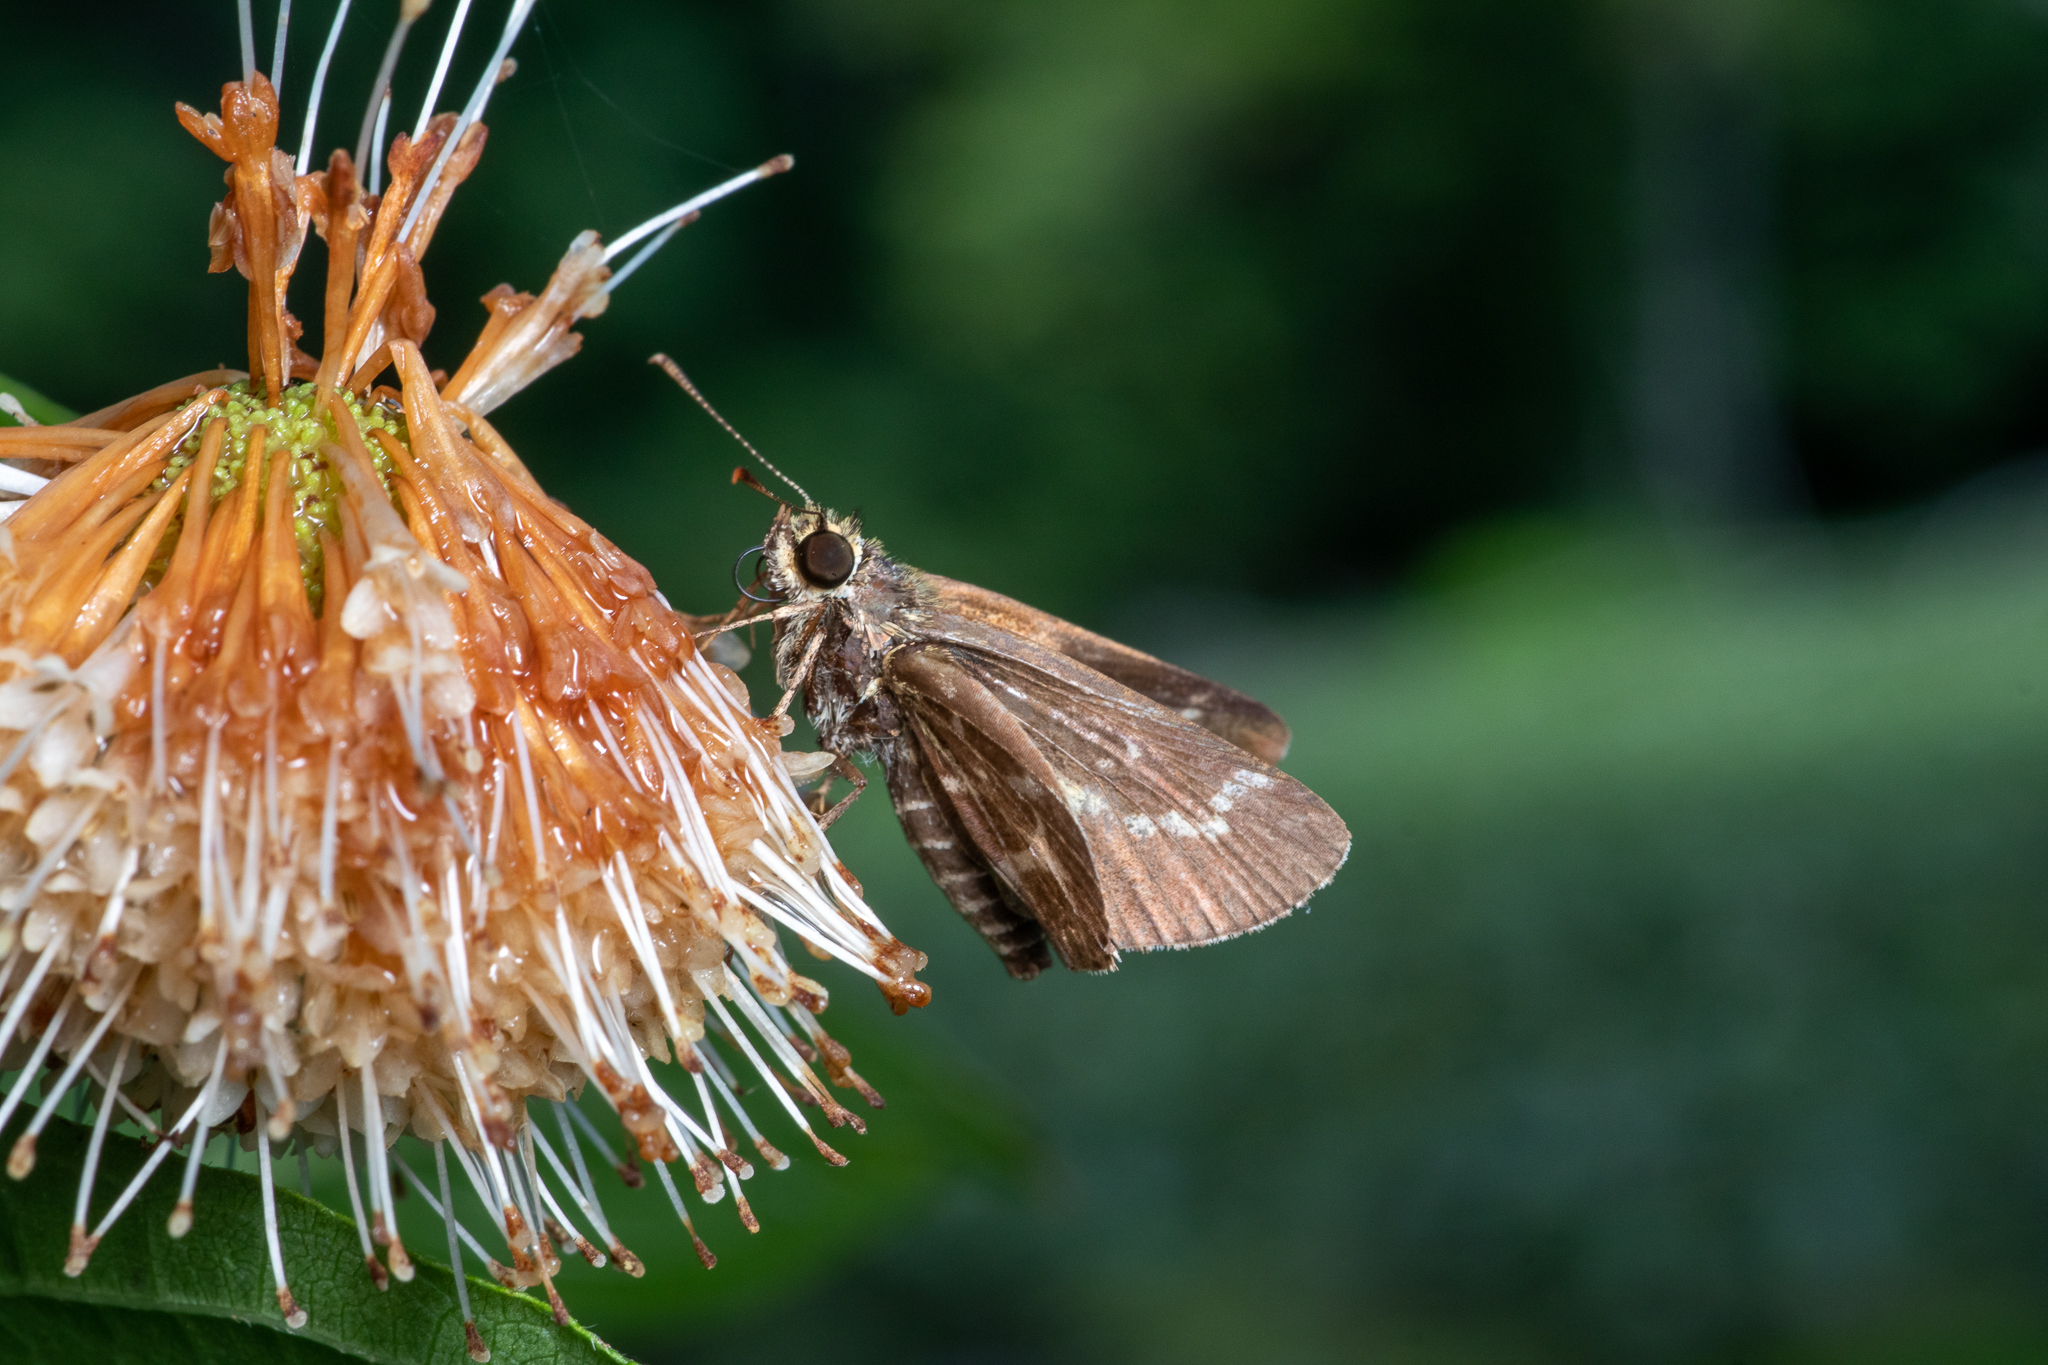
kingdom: Animalia
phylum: Arthropoda
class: Insecta
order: Lepidoptera
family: Hesperiidae
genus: Mastor
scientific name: Mastor aesculapius
